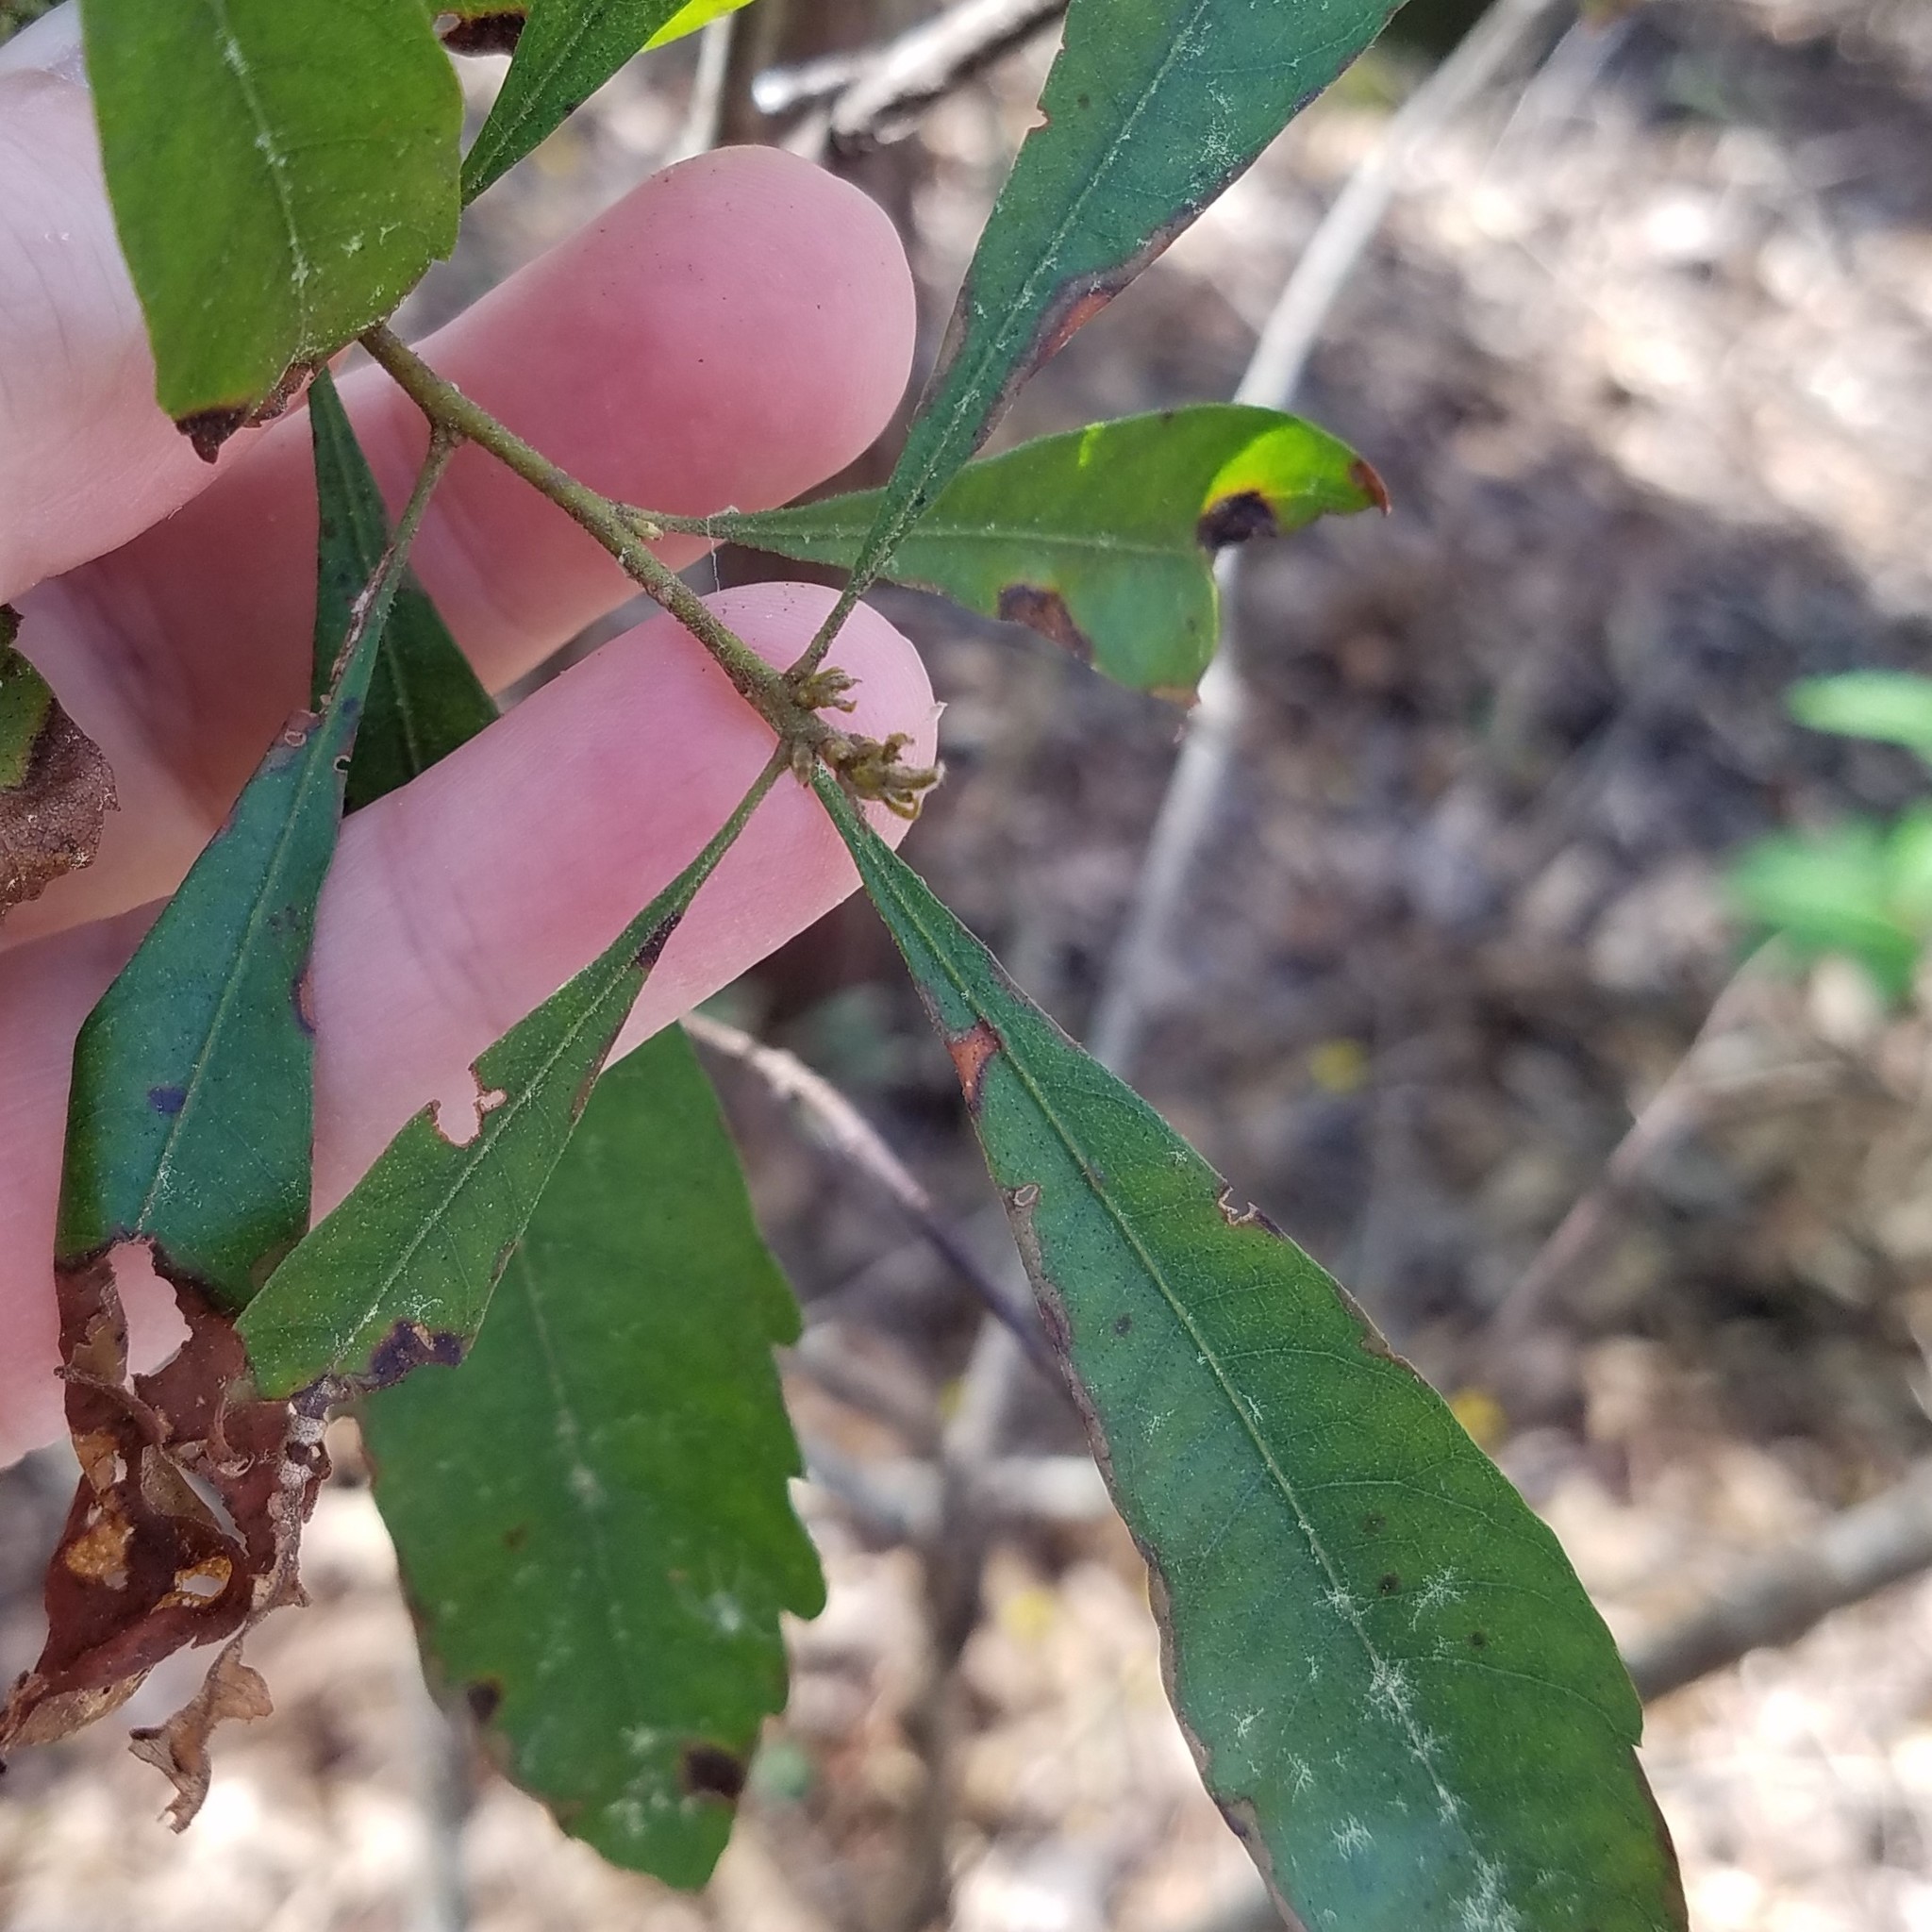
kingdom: Plantae
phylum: Tracheophyta
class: Magnoliopsida
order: Fagales
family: Myricaceae
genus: Morella
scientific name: Morella cerifera
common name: Wax myrtle
